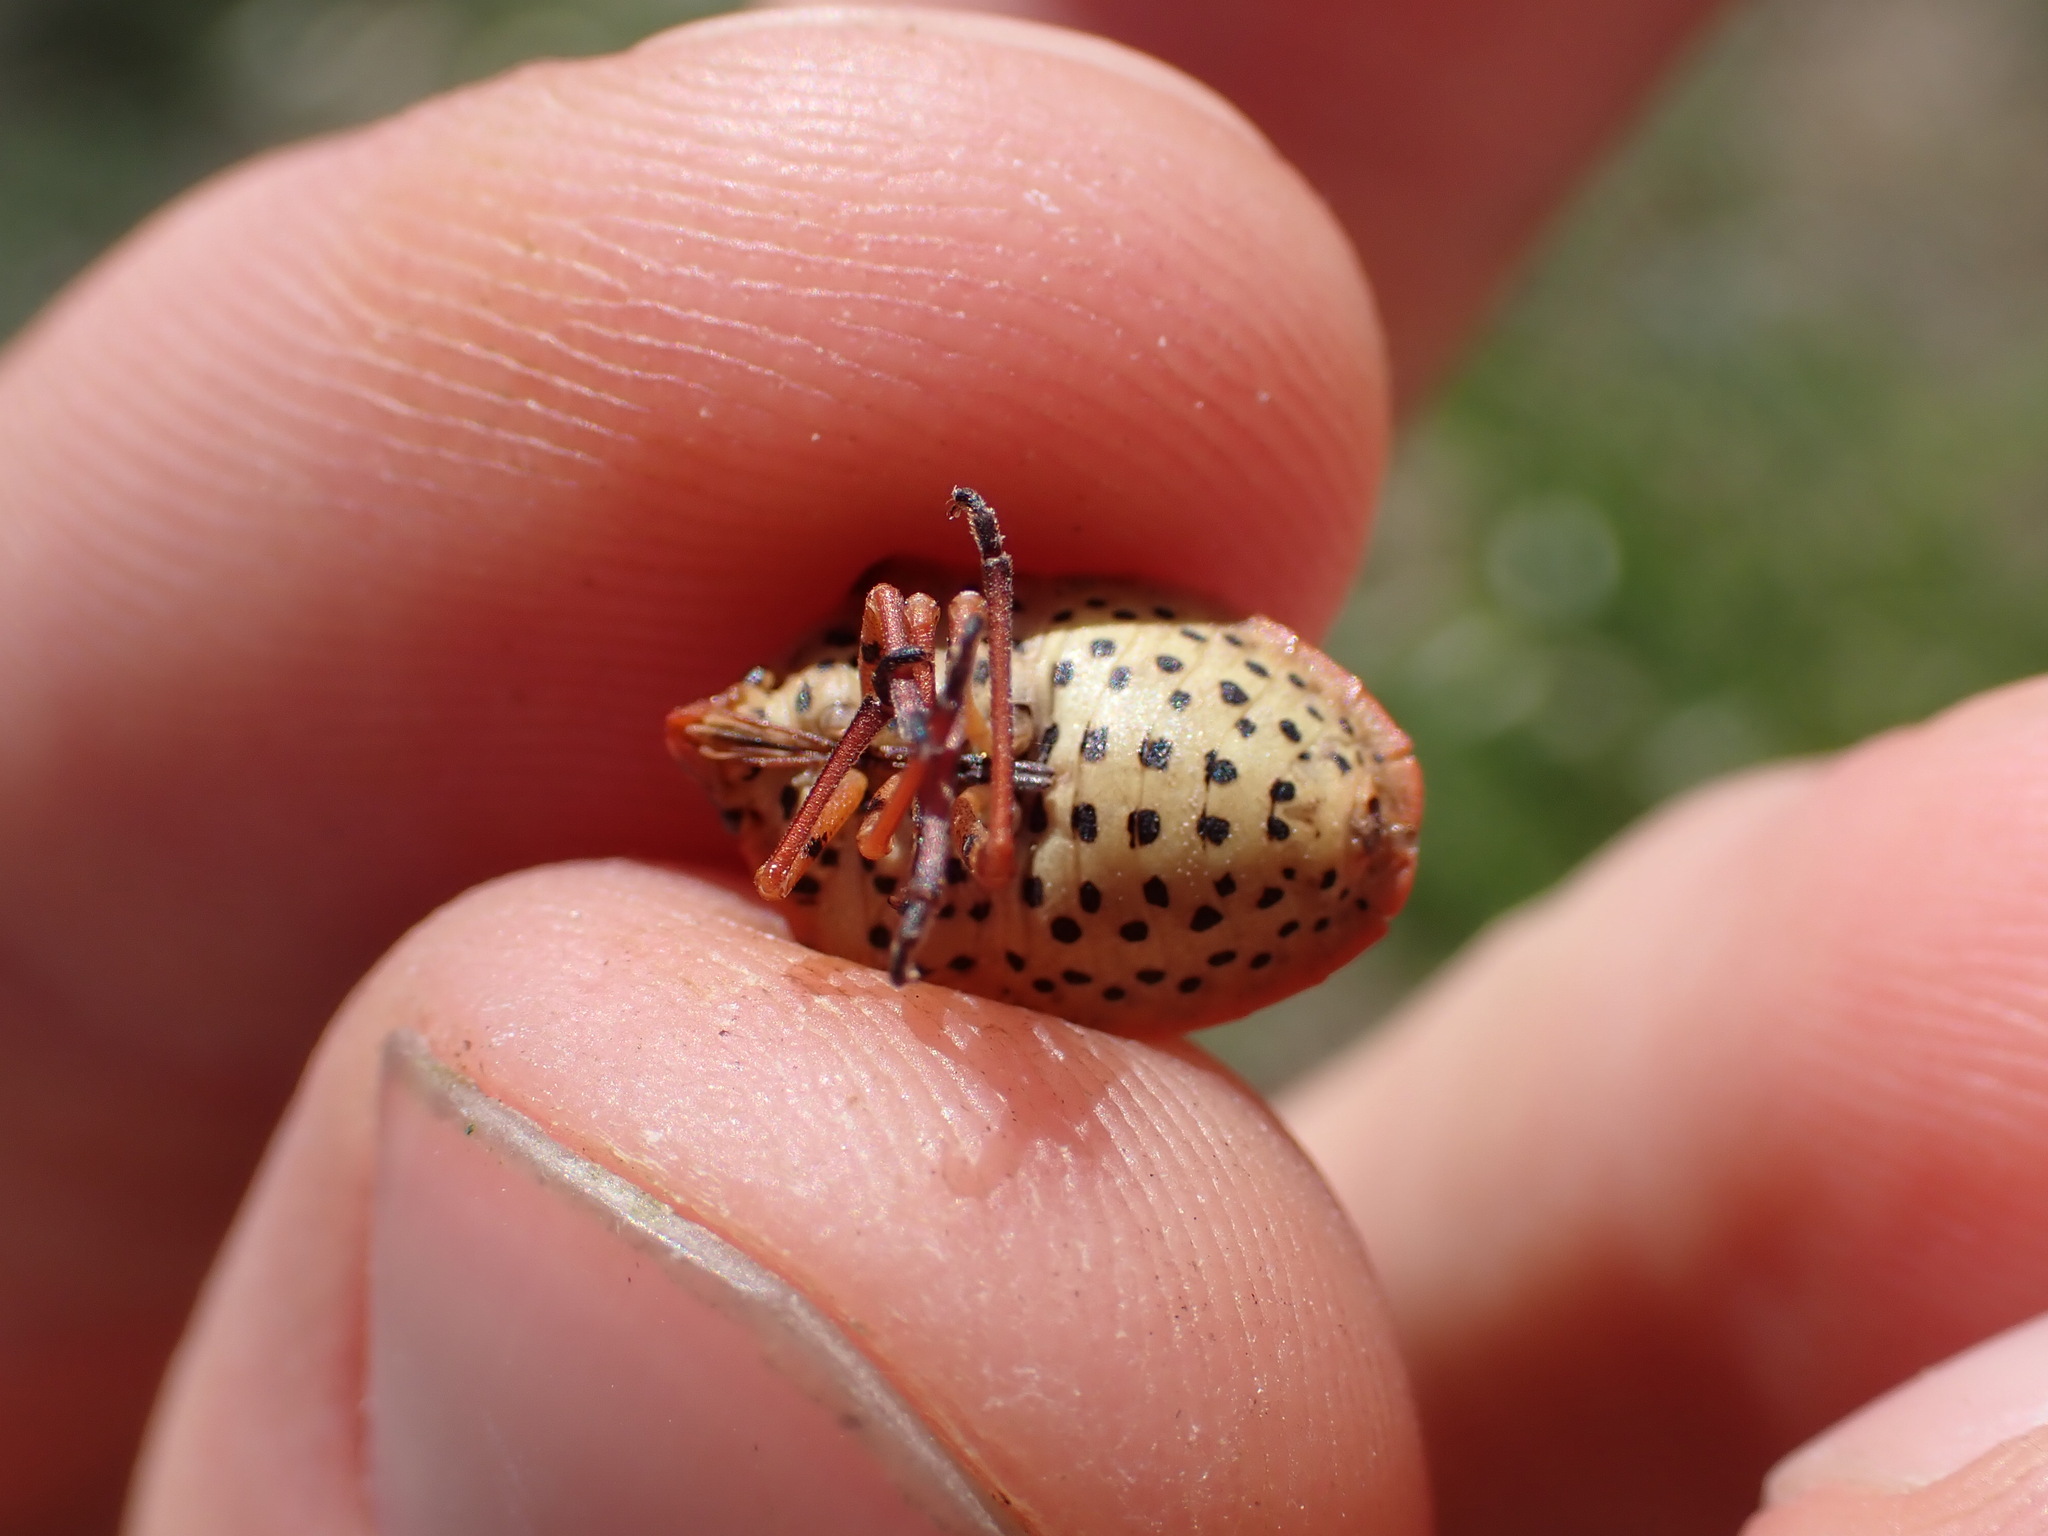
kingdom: Animalia
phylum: Arthropoda
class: Insecta
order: Hemiptera
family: Pentatomidae
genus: Graphosoma
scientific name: Graphosoma semipunctatum
